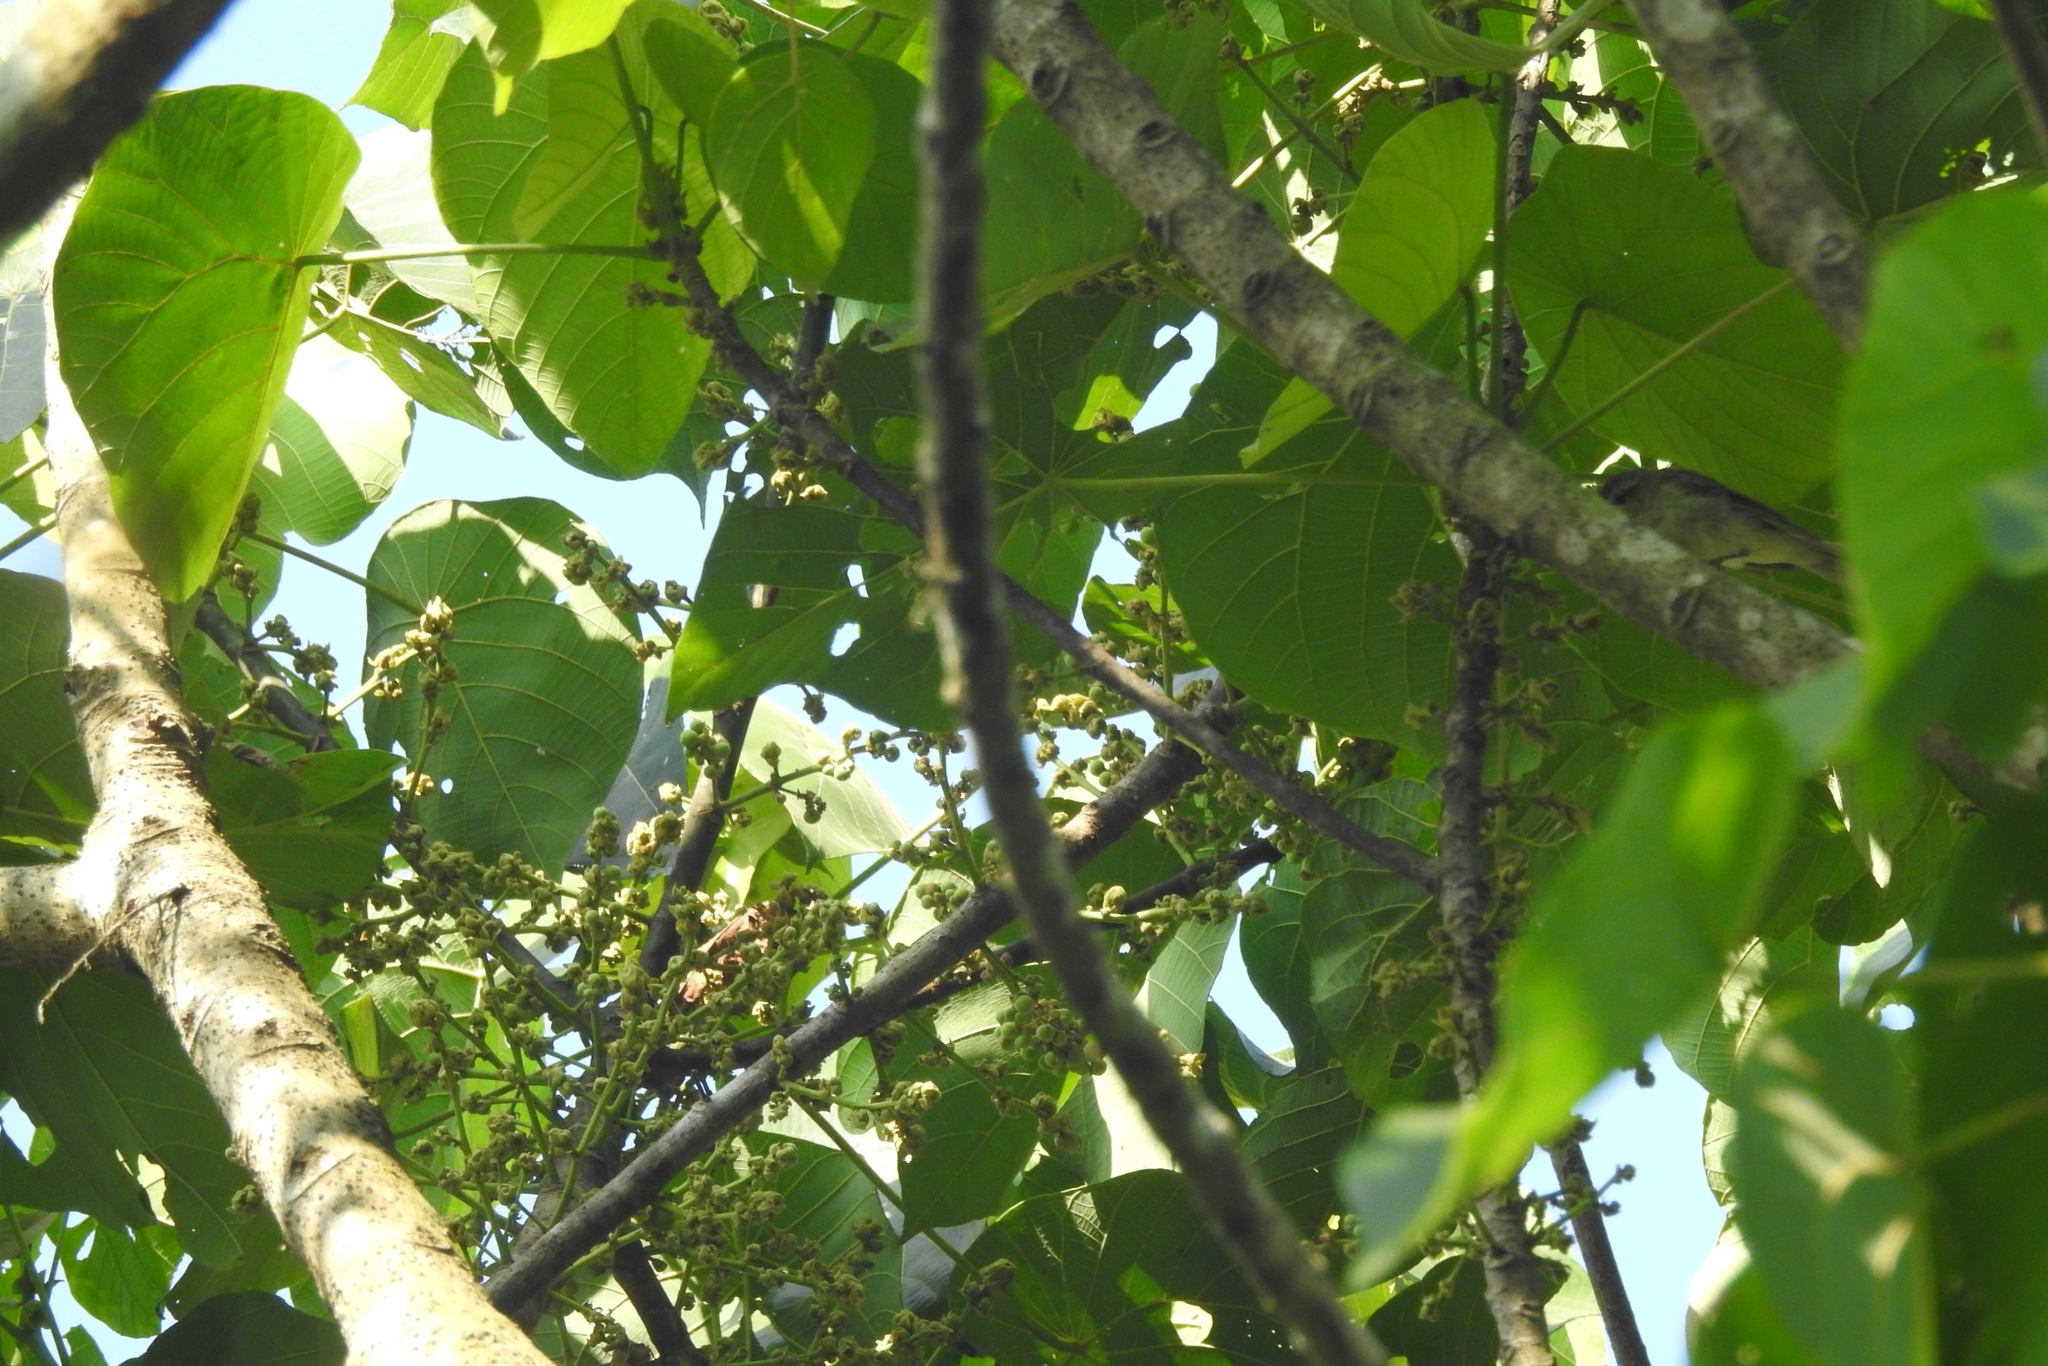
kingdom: Animalia
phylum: Chordata
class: Aves
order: Passeriformes
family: Phylloscopidae
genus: Phylloscopus
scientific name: Phylloscopus nitidus
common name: Green warbler
